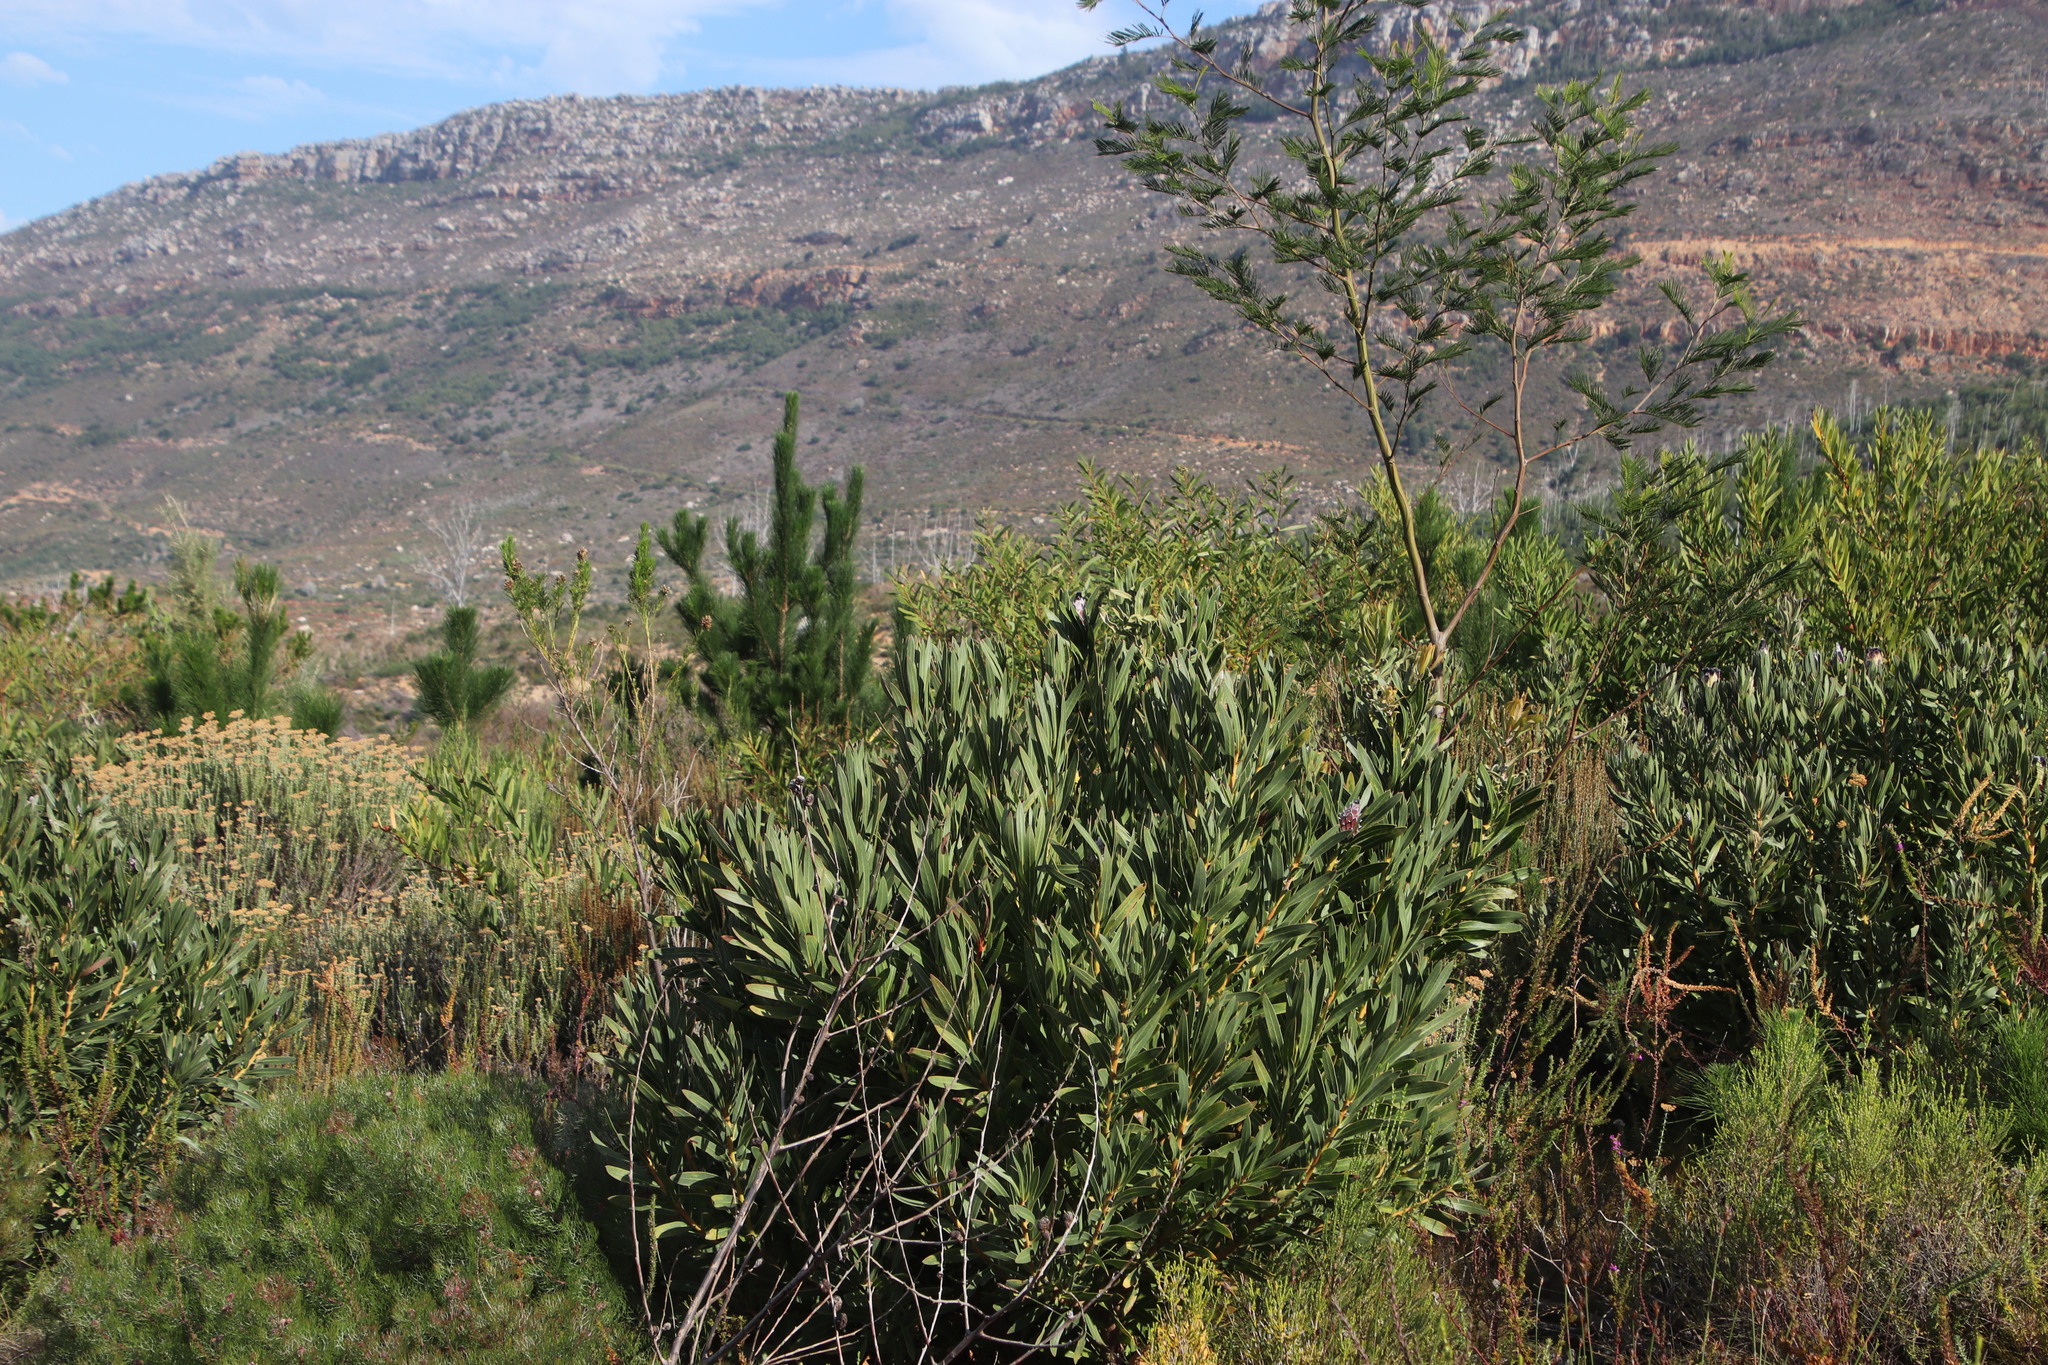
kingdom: Plantae
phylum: Tracheophyta
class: Magnoliopsida
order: Proteales
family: Proteaceae
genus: Protea
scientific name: Protea lepidocarpodendron
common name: Black-bearded protea
